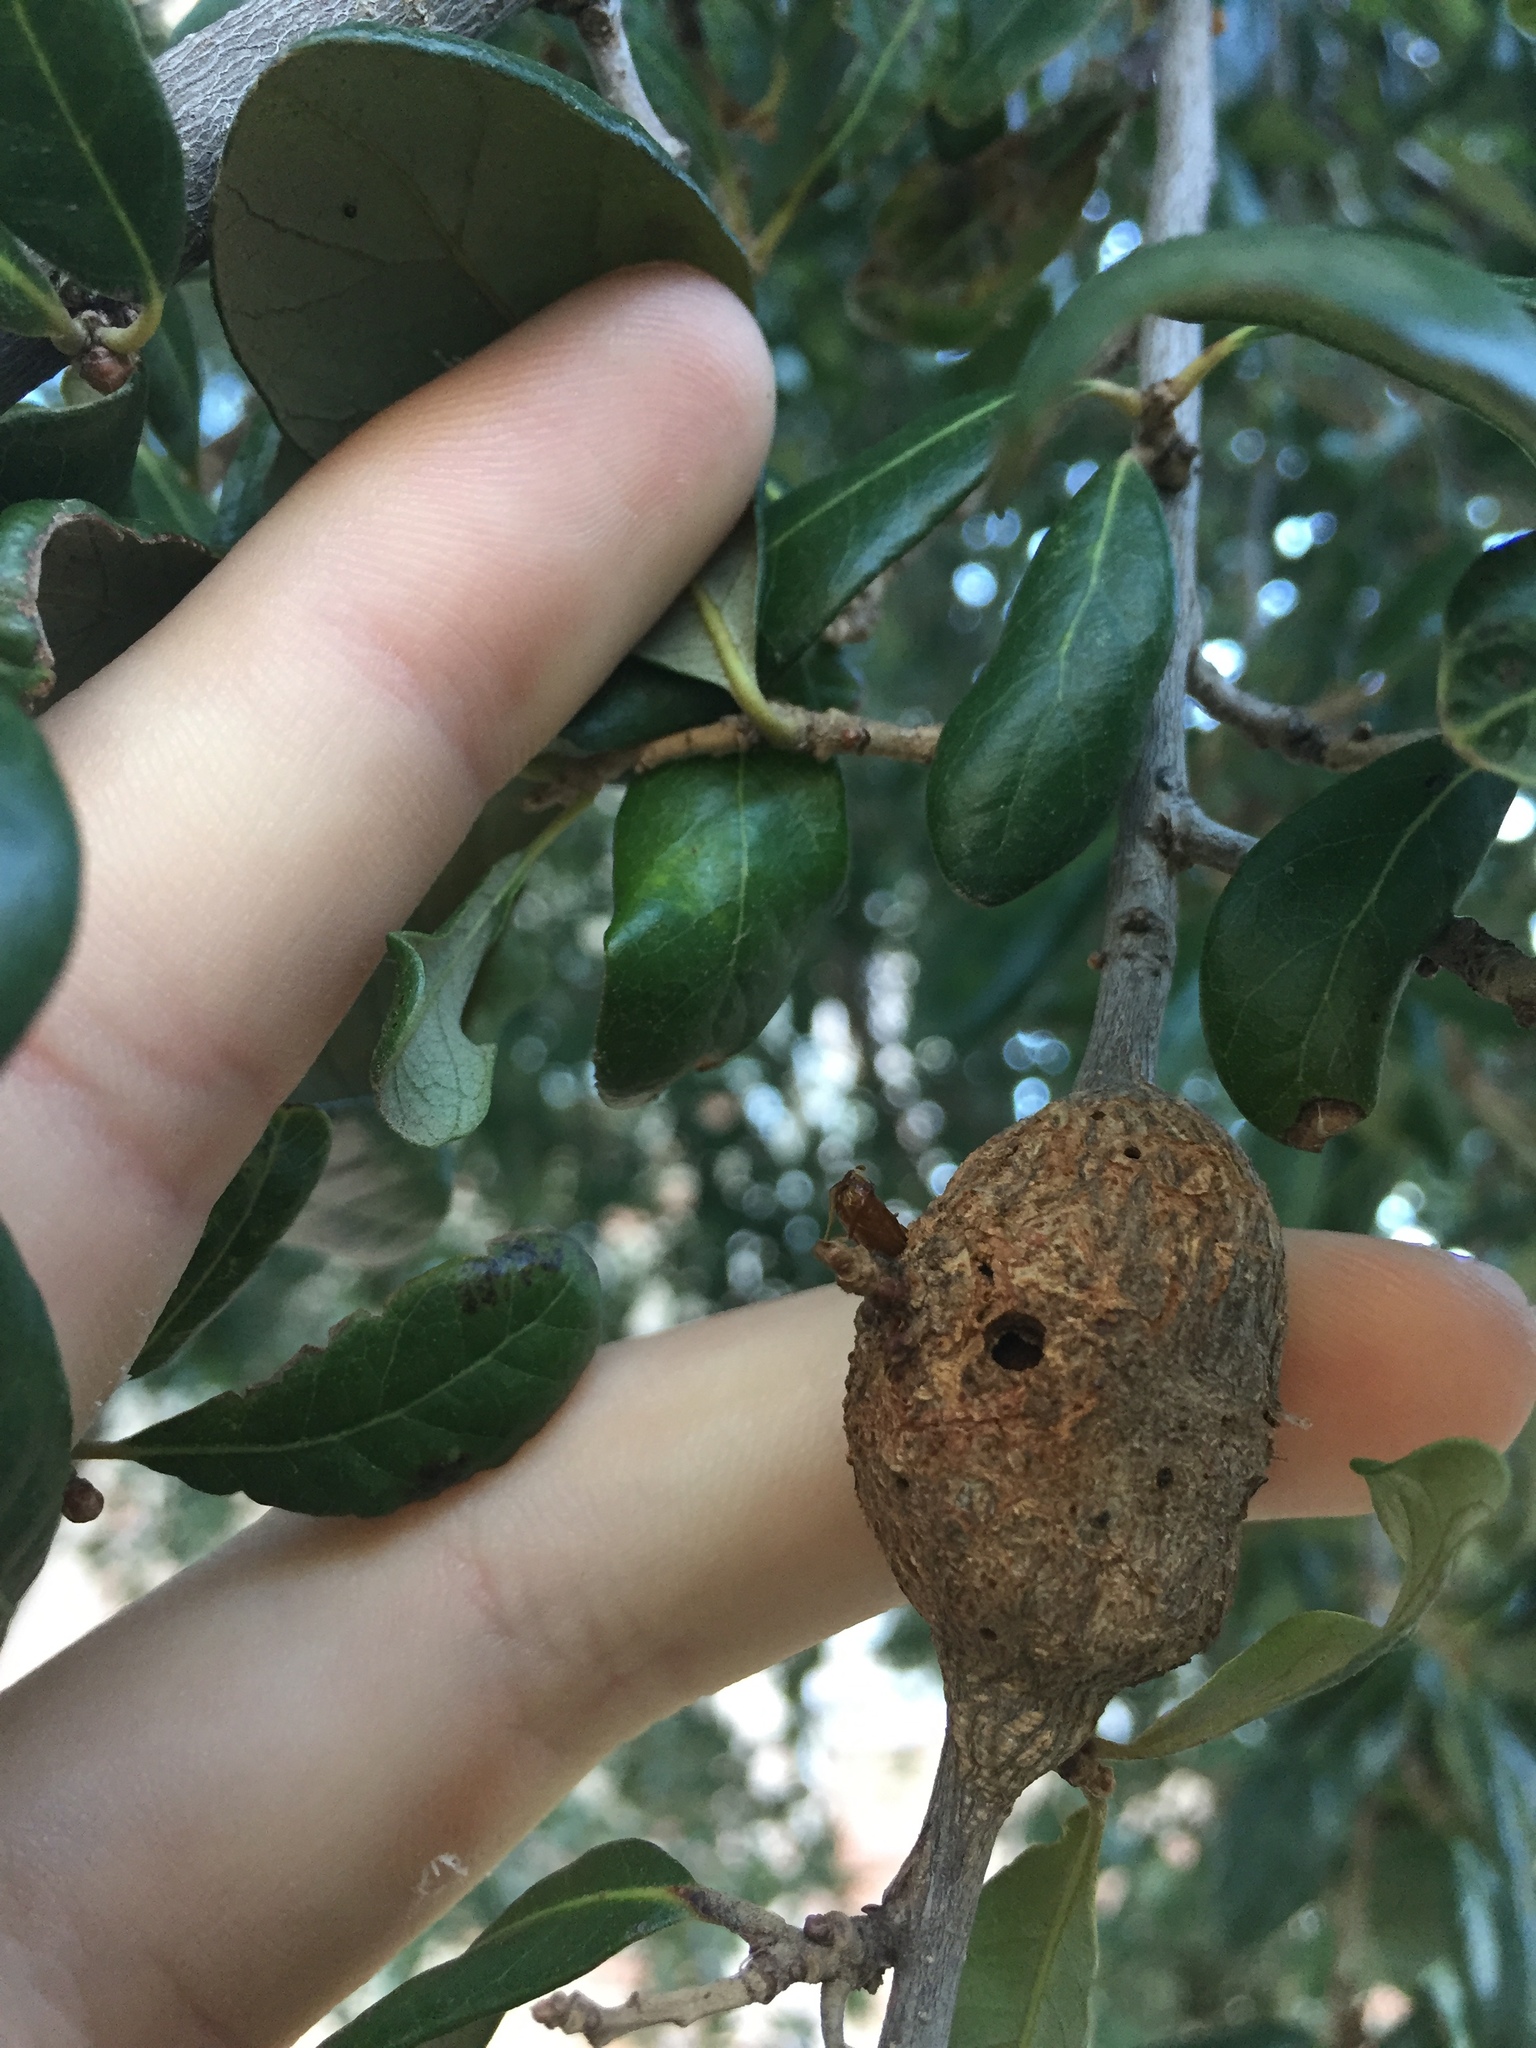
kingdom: Animalia
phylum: Arthropoda
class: Insecta
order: Hymenoptera
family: Cynipidae
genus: Callirhytis
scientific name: Callirhytis
